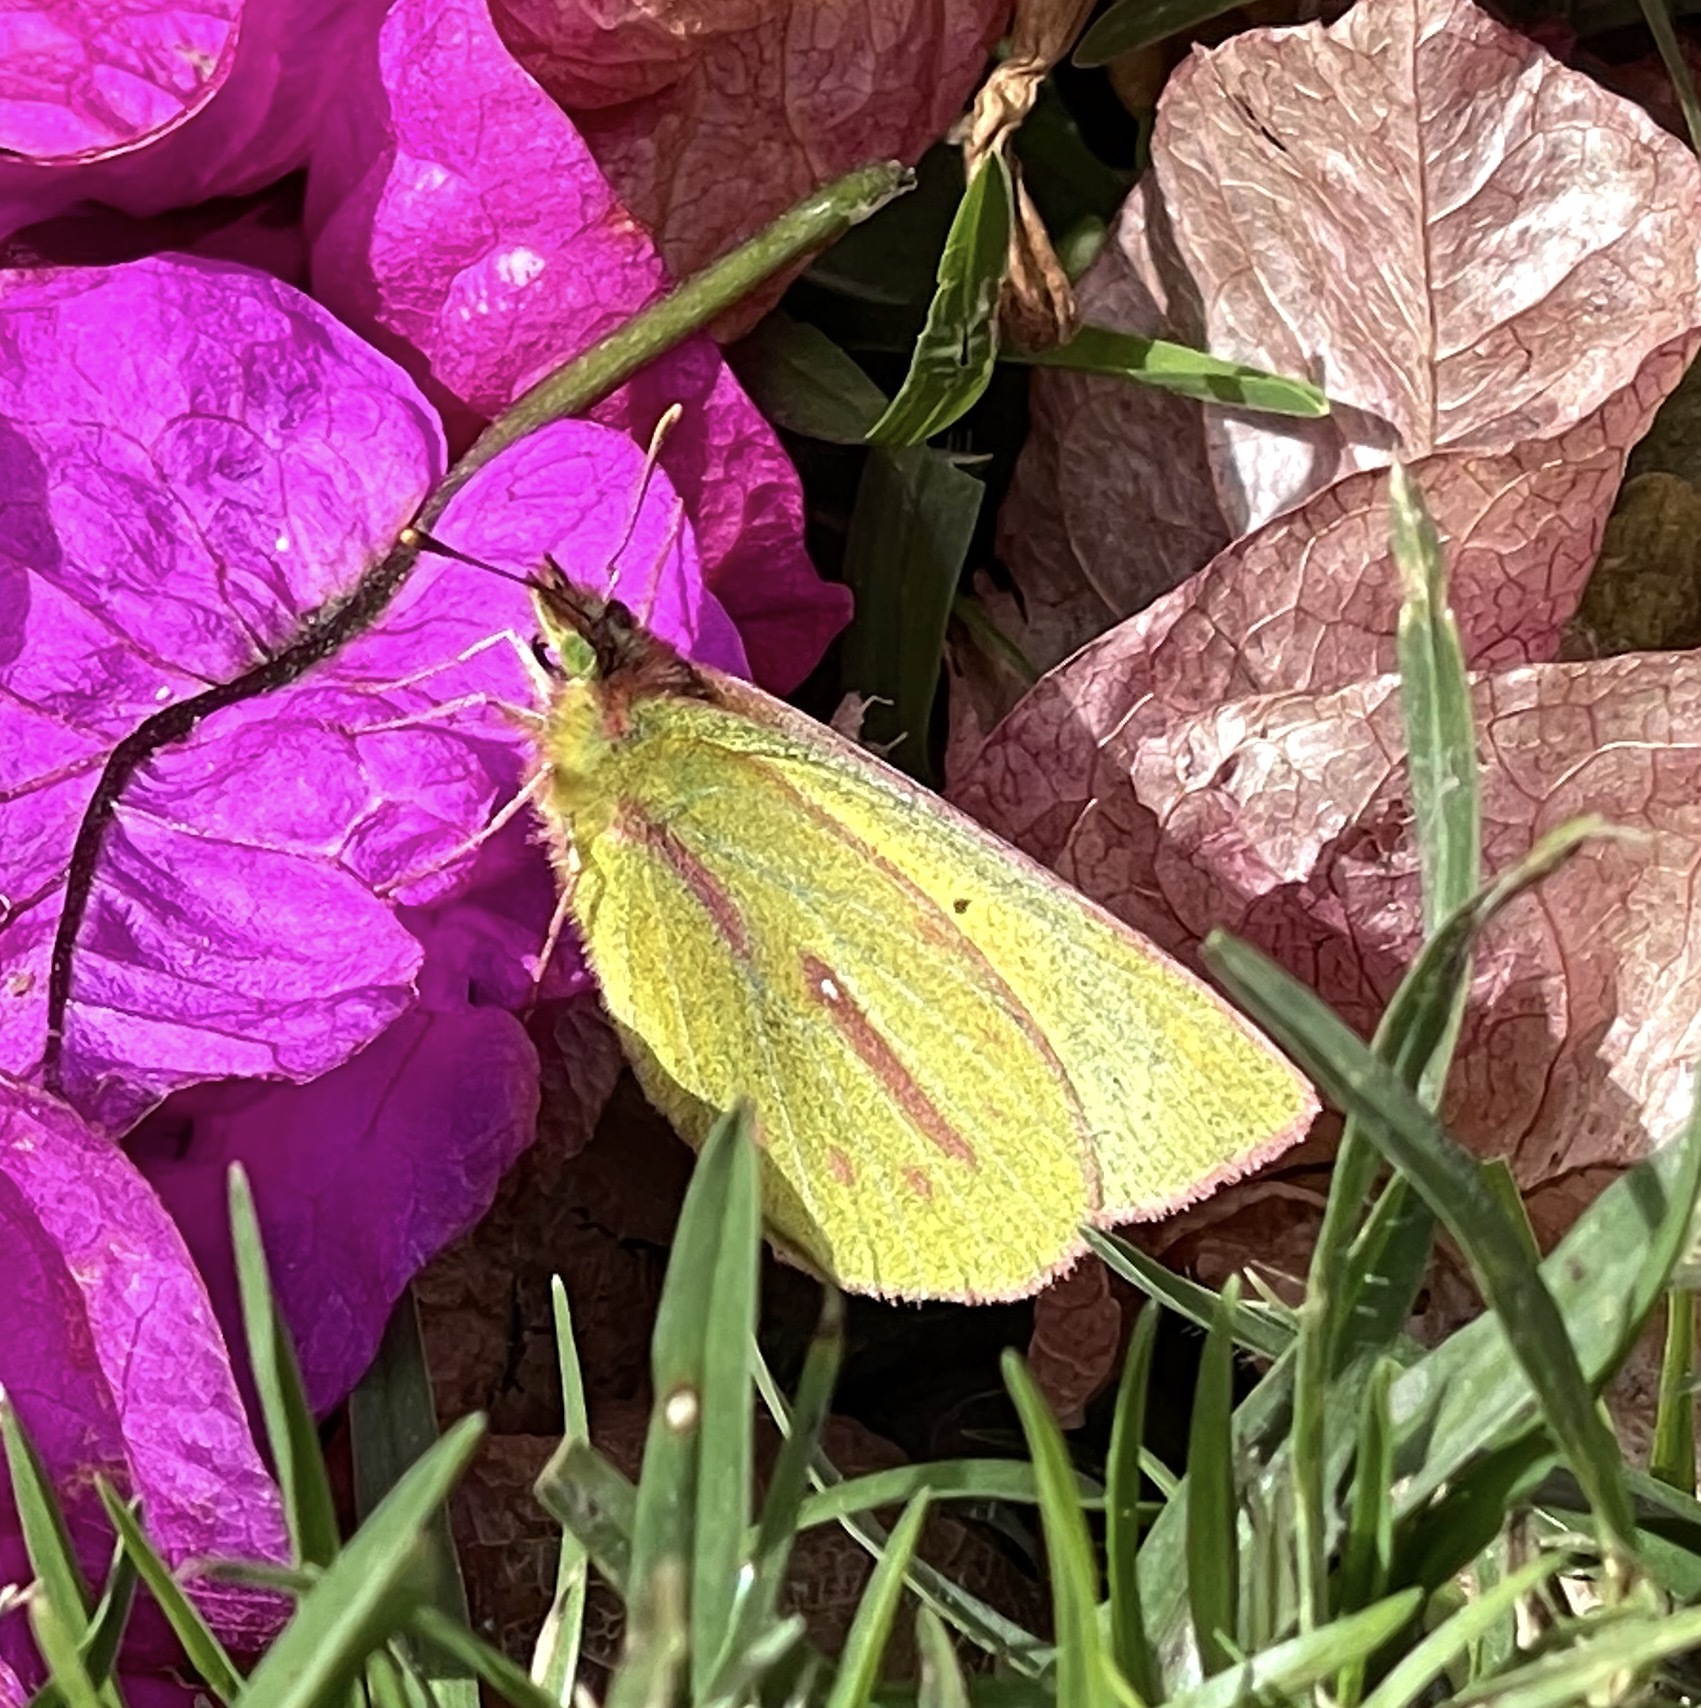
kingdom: Animalia
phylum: Arthropoda
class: Insecta
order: Lepidoptera
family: Pieridae
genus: Colias
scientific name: Colias dimera
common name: Dimera sulphur
